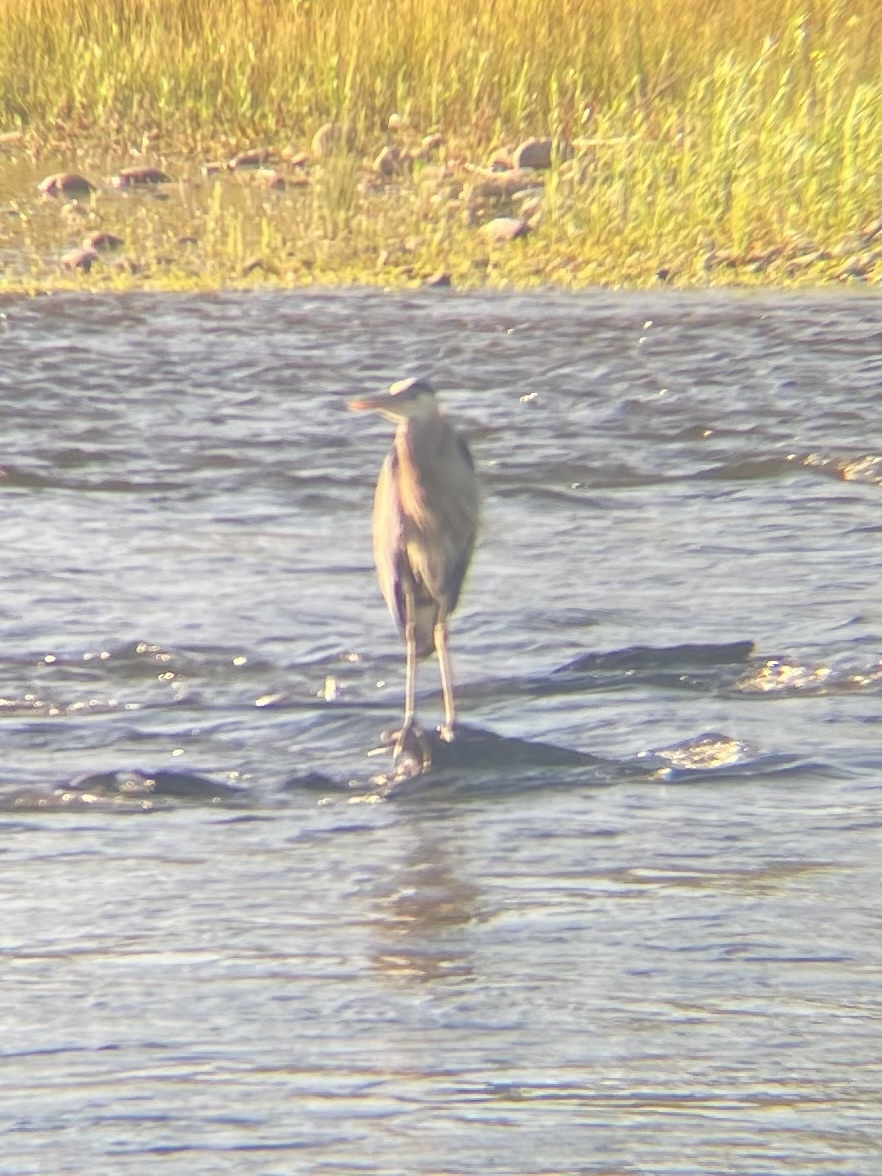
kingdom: Animalia
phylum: Chordata
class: Aves
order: Pelecaniformes
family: Ardeidae
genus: Ardea
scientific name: Ardea herodias
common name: Great blue heron
